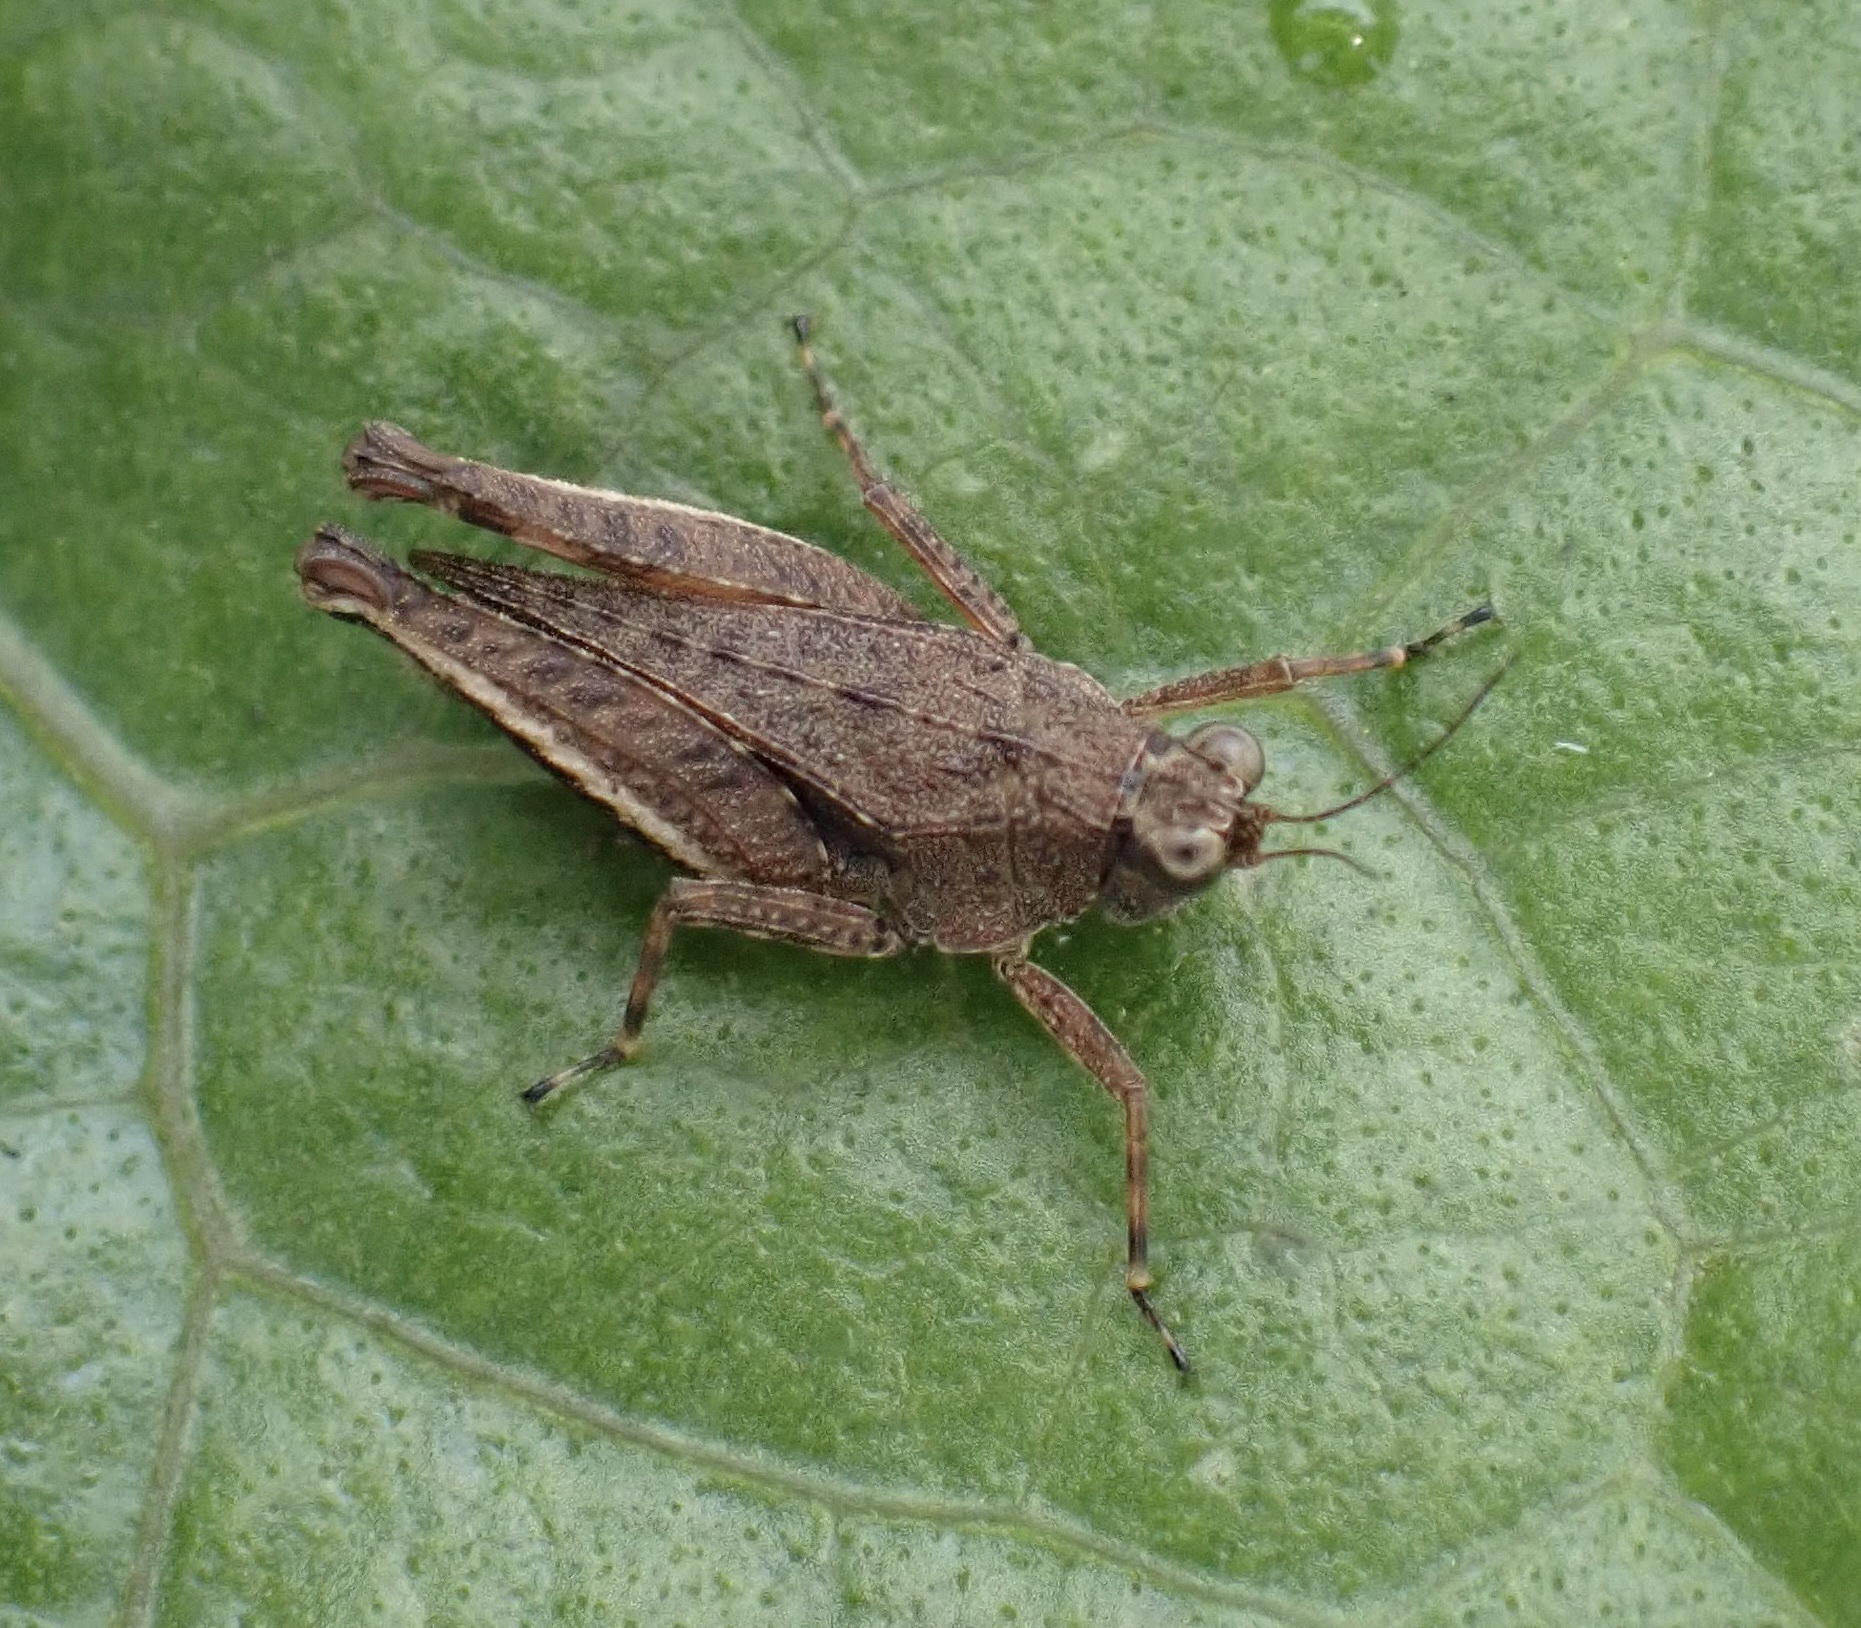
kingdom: Animalia
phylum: Arthropoda
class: Insecta
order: Orthoptera
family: Tetrigidae
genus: Loxilobus
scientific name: Loxilobus celebensis
